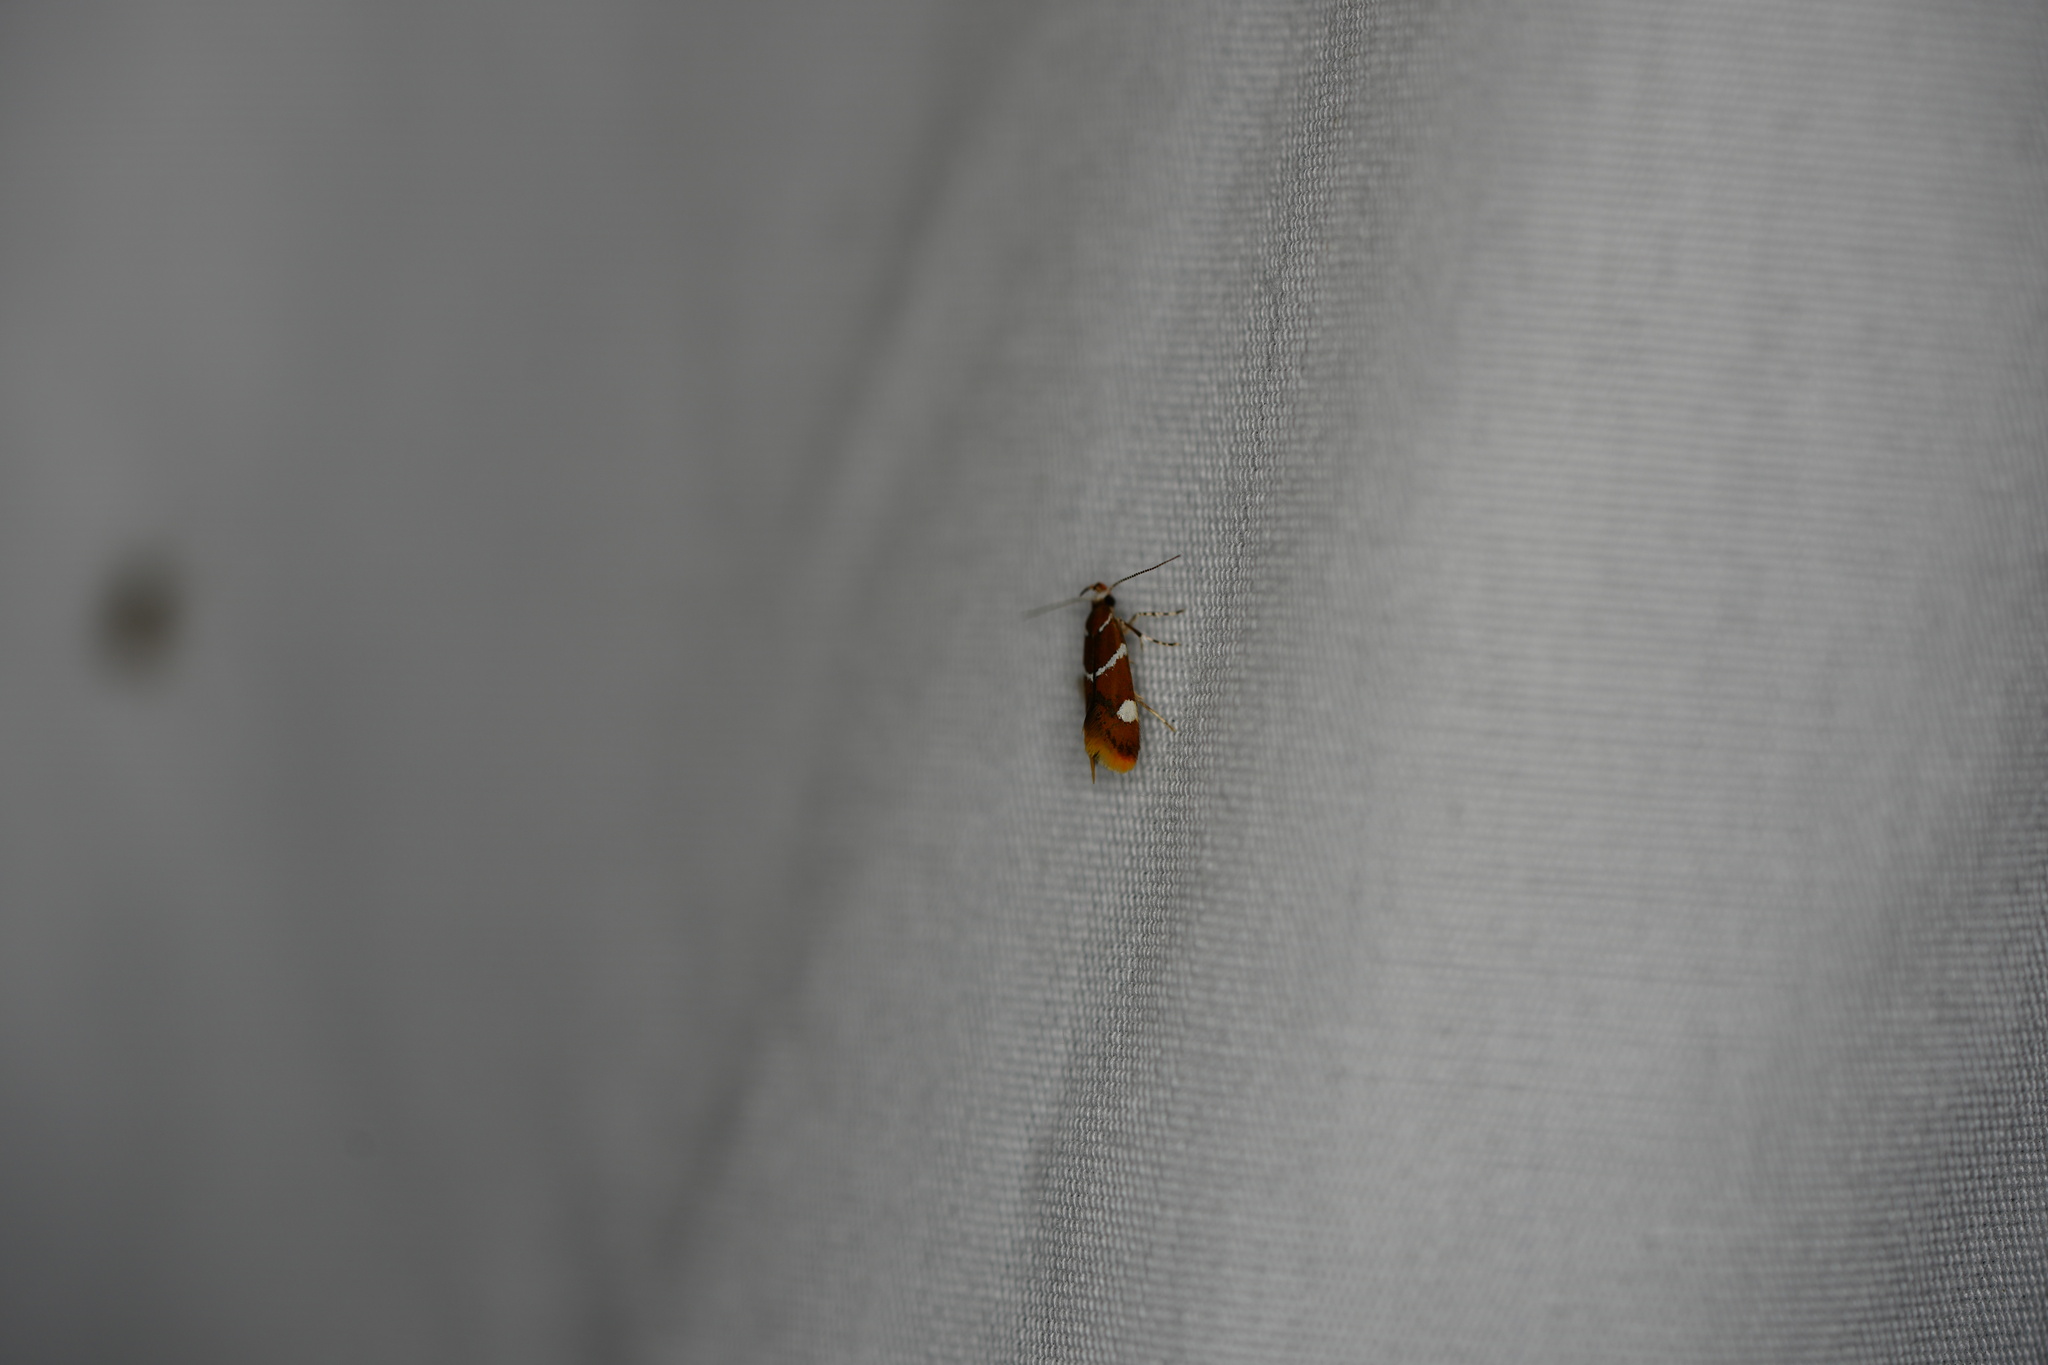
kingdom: Animalia
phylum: Arthropoda
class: Insecta
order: Lepidoptera
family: Oecophoridae
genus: Promalactis
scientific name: Promalactis suzukiella
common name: Moth
